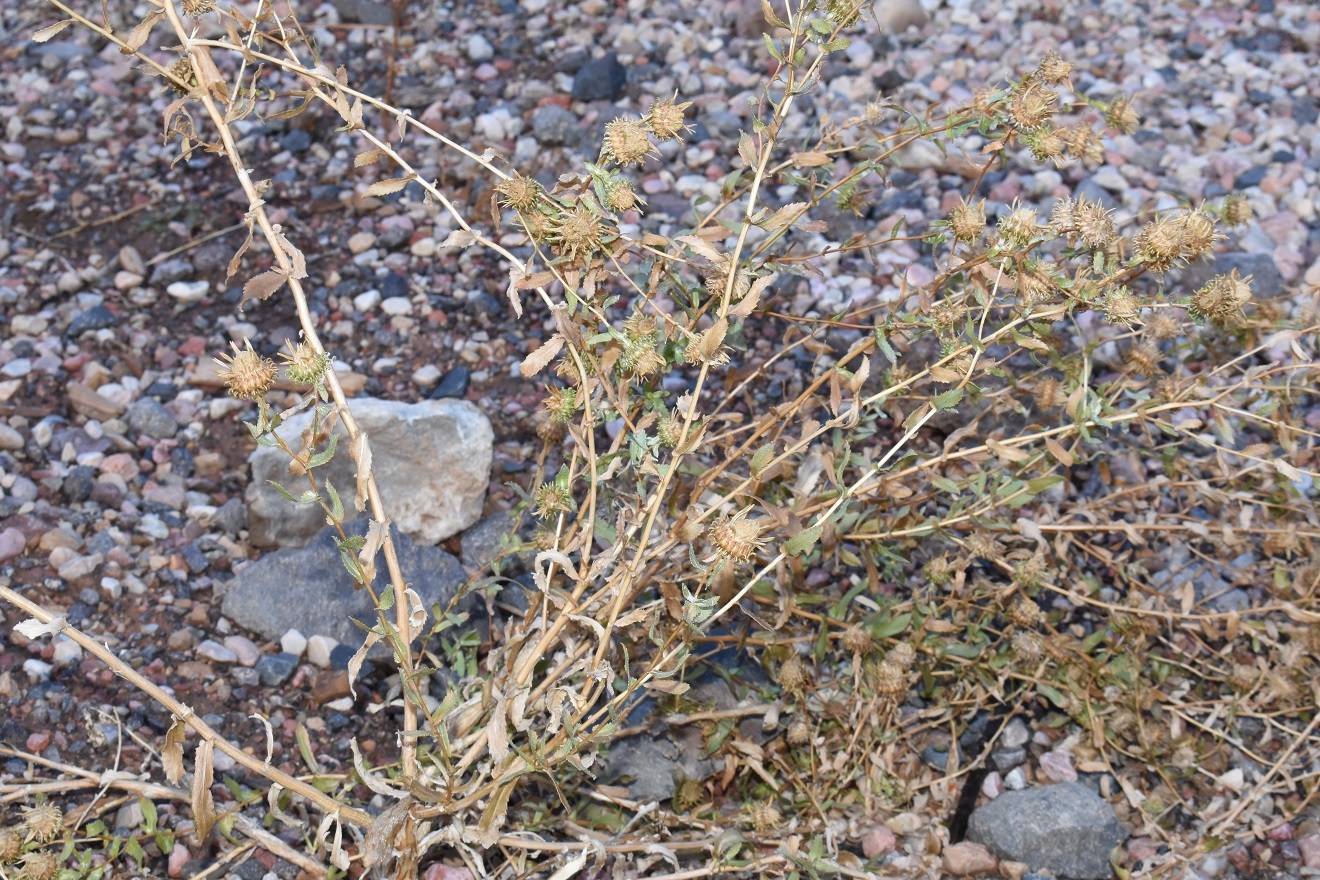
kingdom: Plantae
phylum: Tracheophyta
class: Magnoliopsida
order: Asterales
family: Asteraceae
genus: Grindelia
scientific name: Grindelia squarrosa
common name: Curly-cup gumweed
